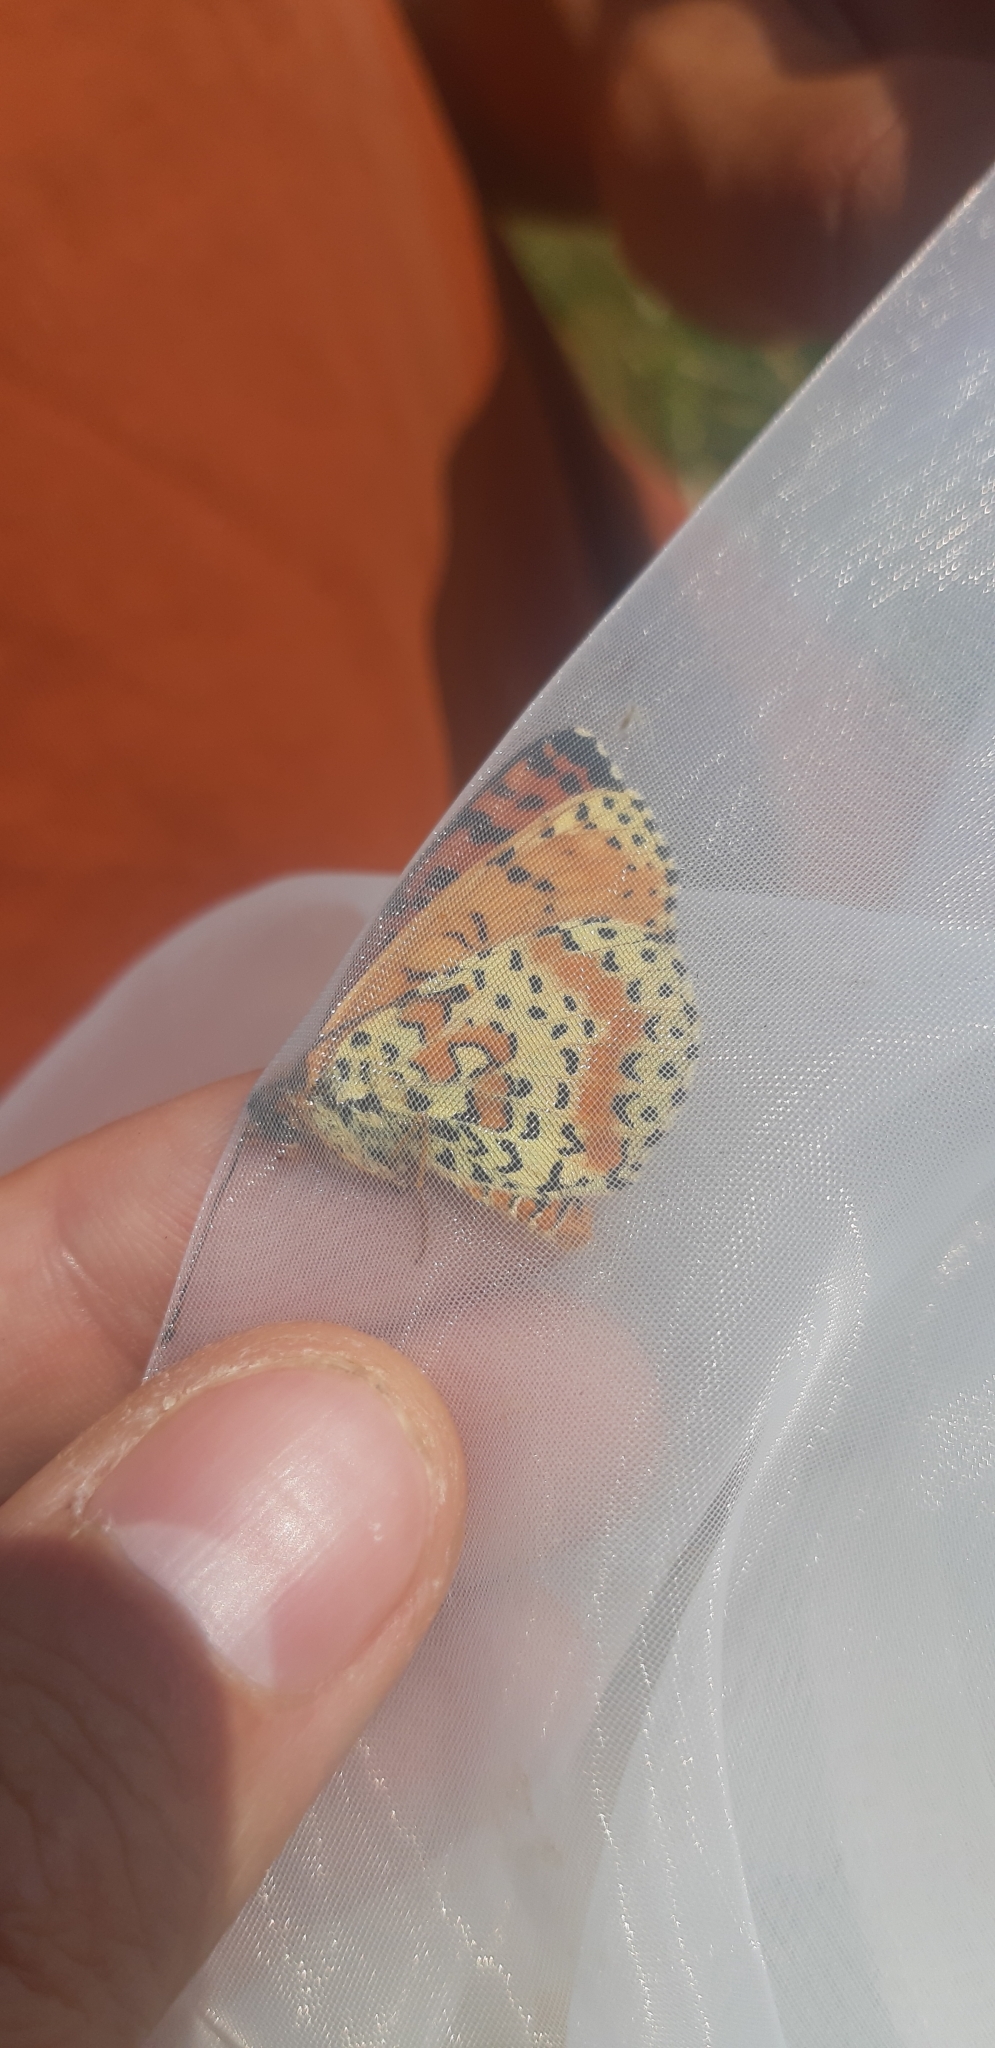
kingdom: Animalia
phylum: Arthropoda
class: Insecta
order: Lepidoptera
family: Nymphalidae
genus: Melitaea
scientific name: Melitaea didyma
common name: Spotted fritillary
